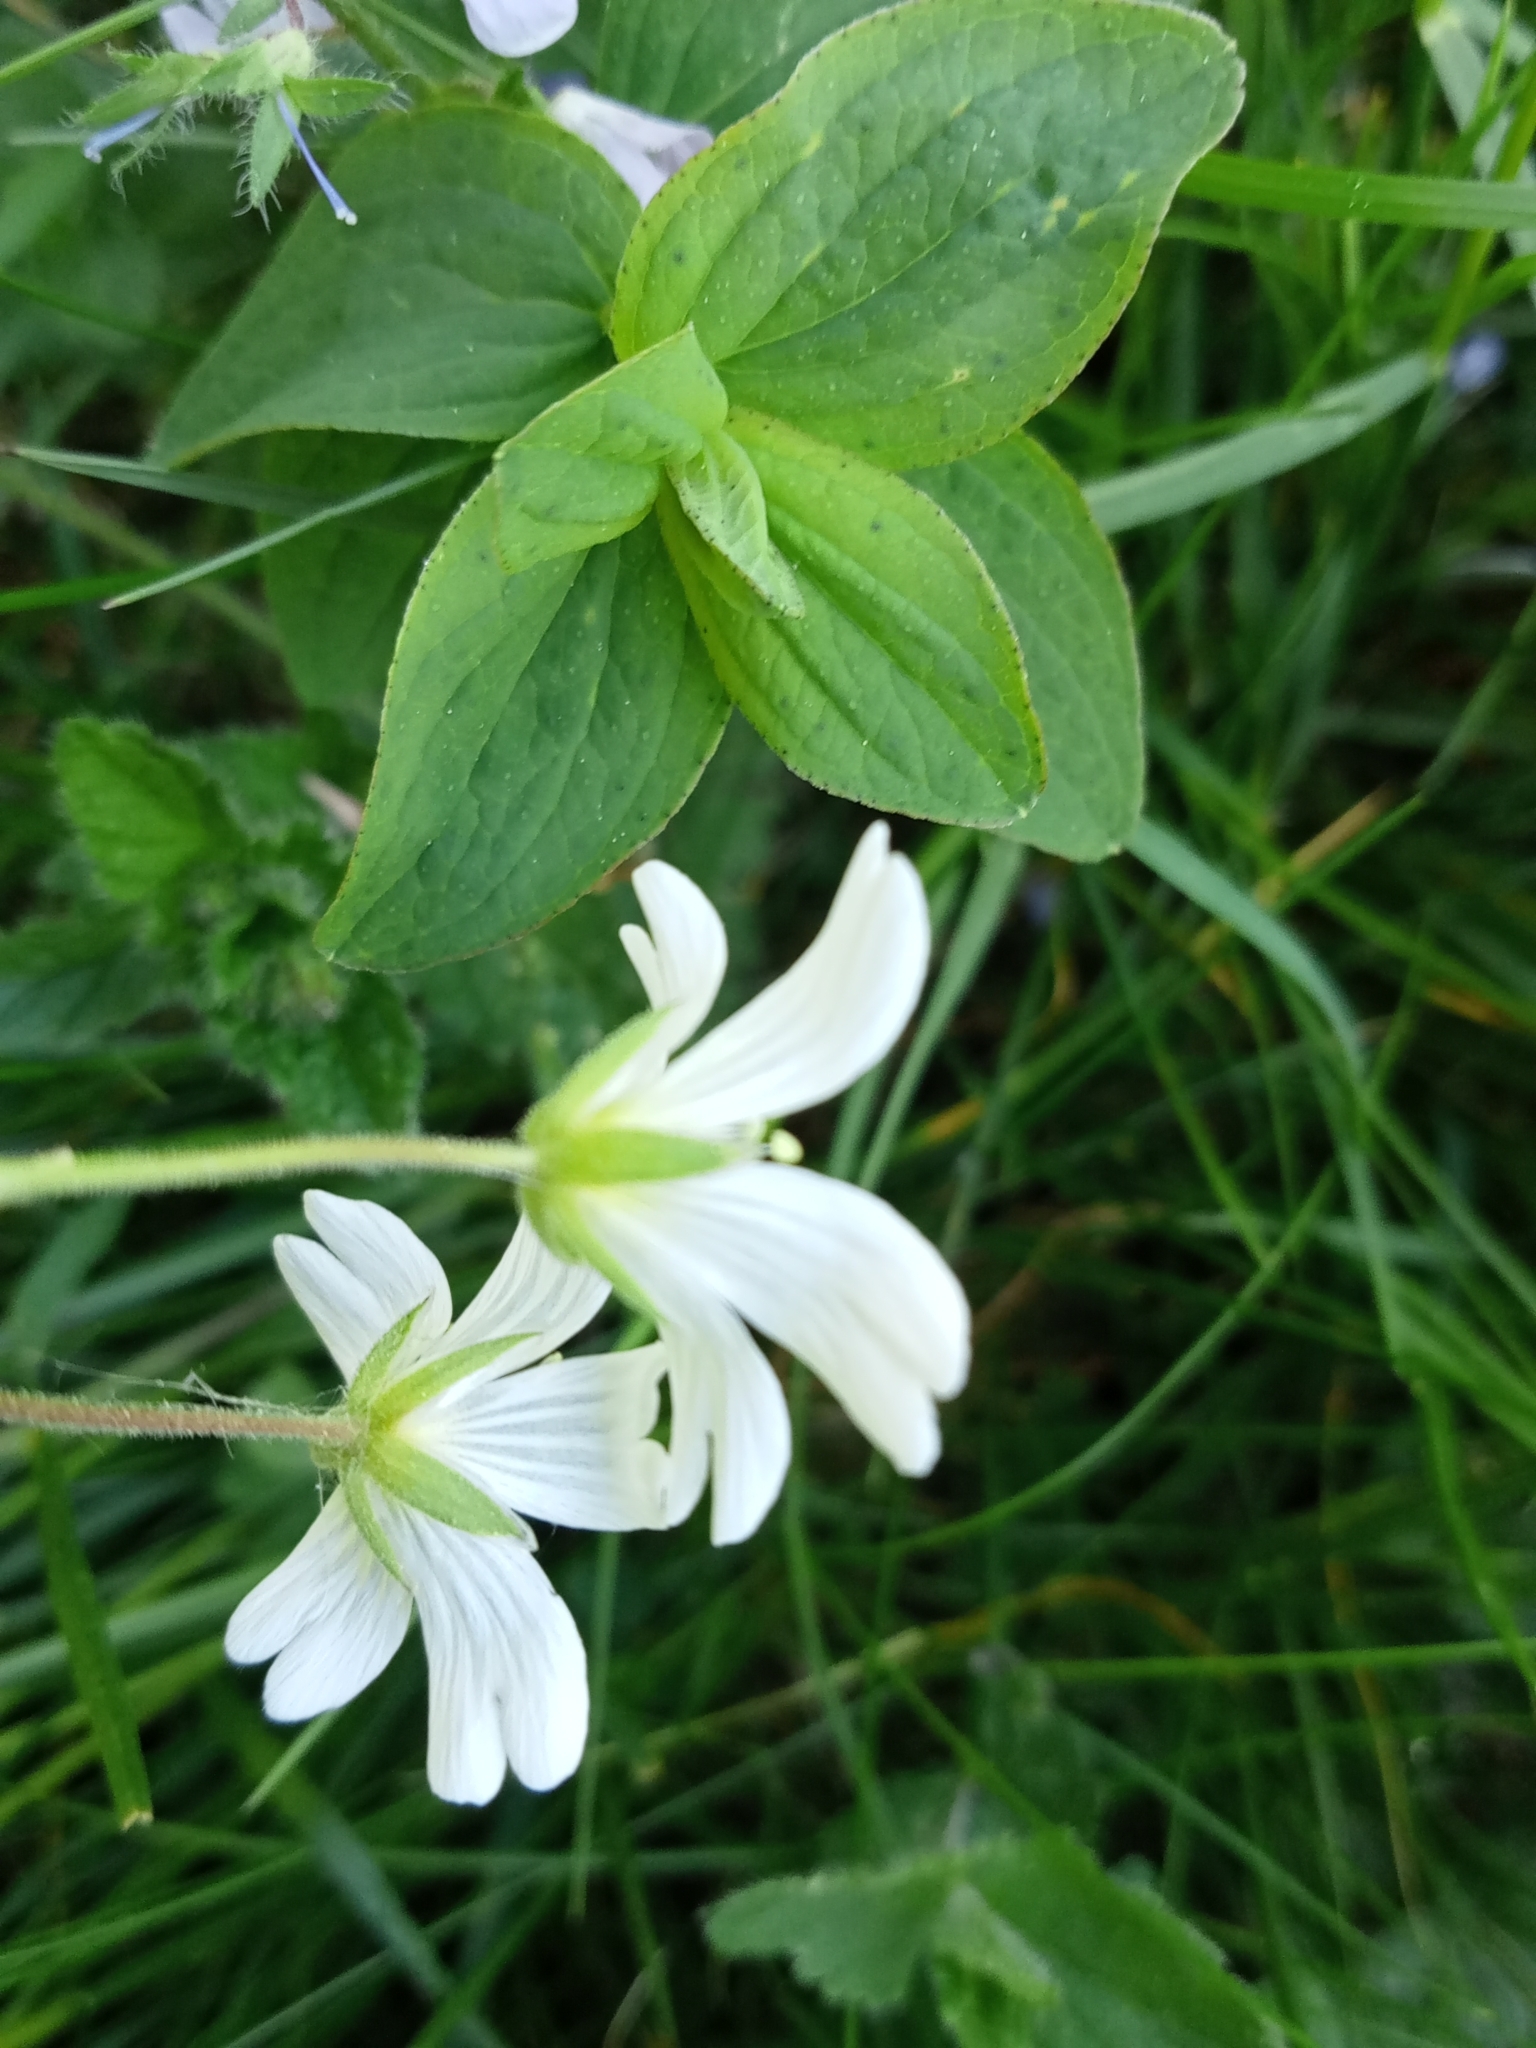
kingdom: Plantae
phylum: Tracheophyta
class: Magnoliopsida
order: Caryophyllales
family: Caryophyllaceae
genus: Cerastium
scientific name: Cerastium arvense
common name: Field mouse-ear
